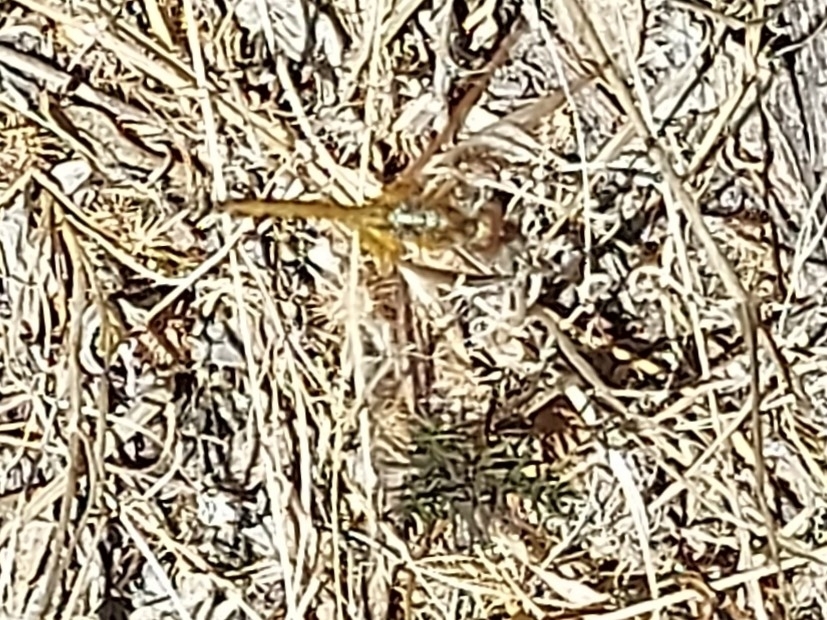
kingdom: Animalia
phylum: Arthropoda
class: Insecta
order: Odonata
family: Libellulidae
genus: Trithemis
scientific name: Trithemis arteriosa
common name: Red-veined dropwing
